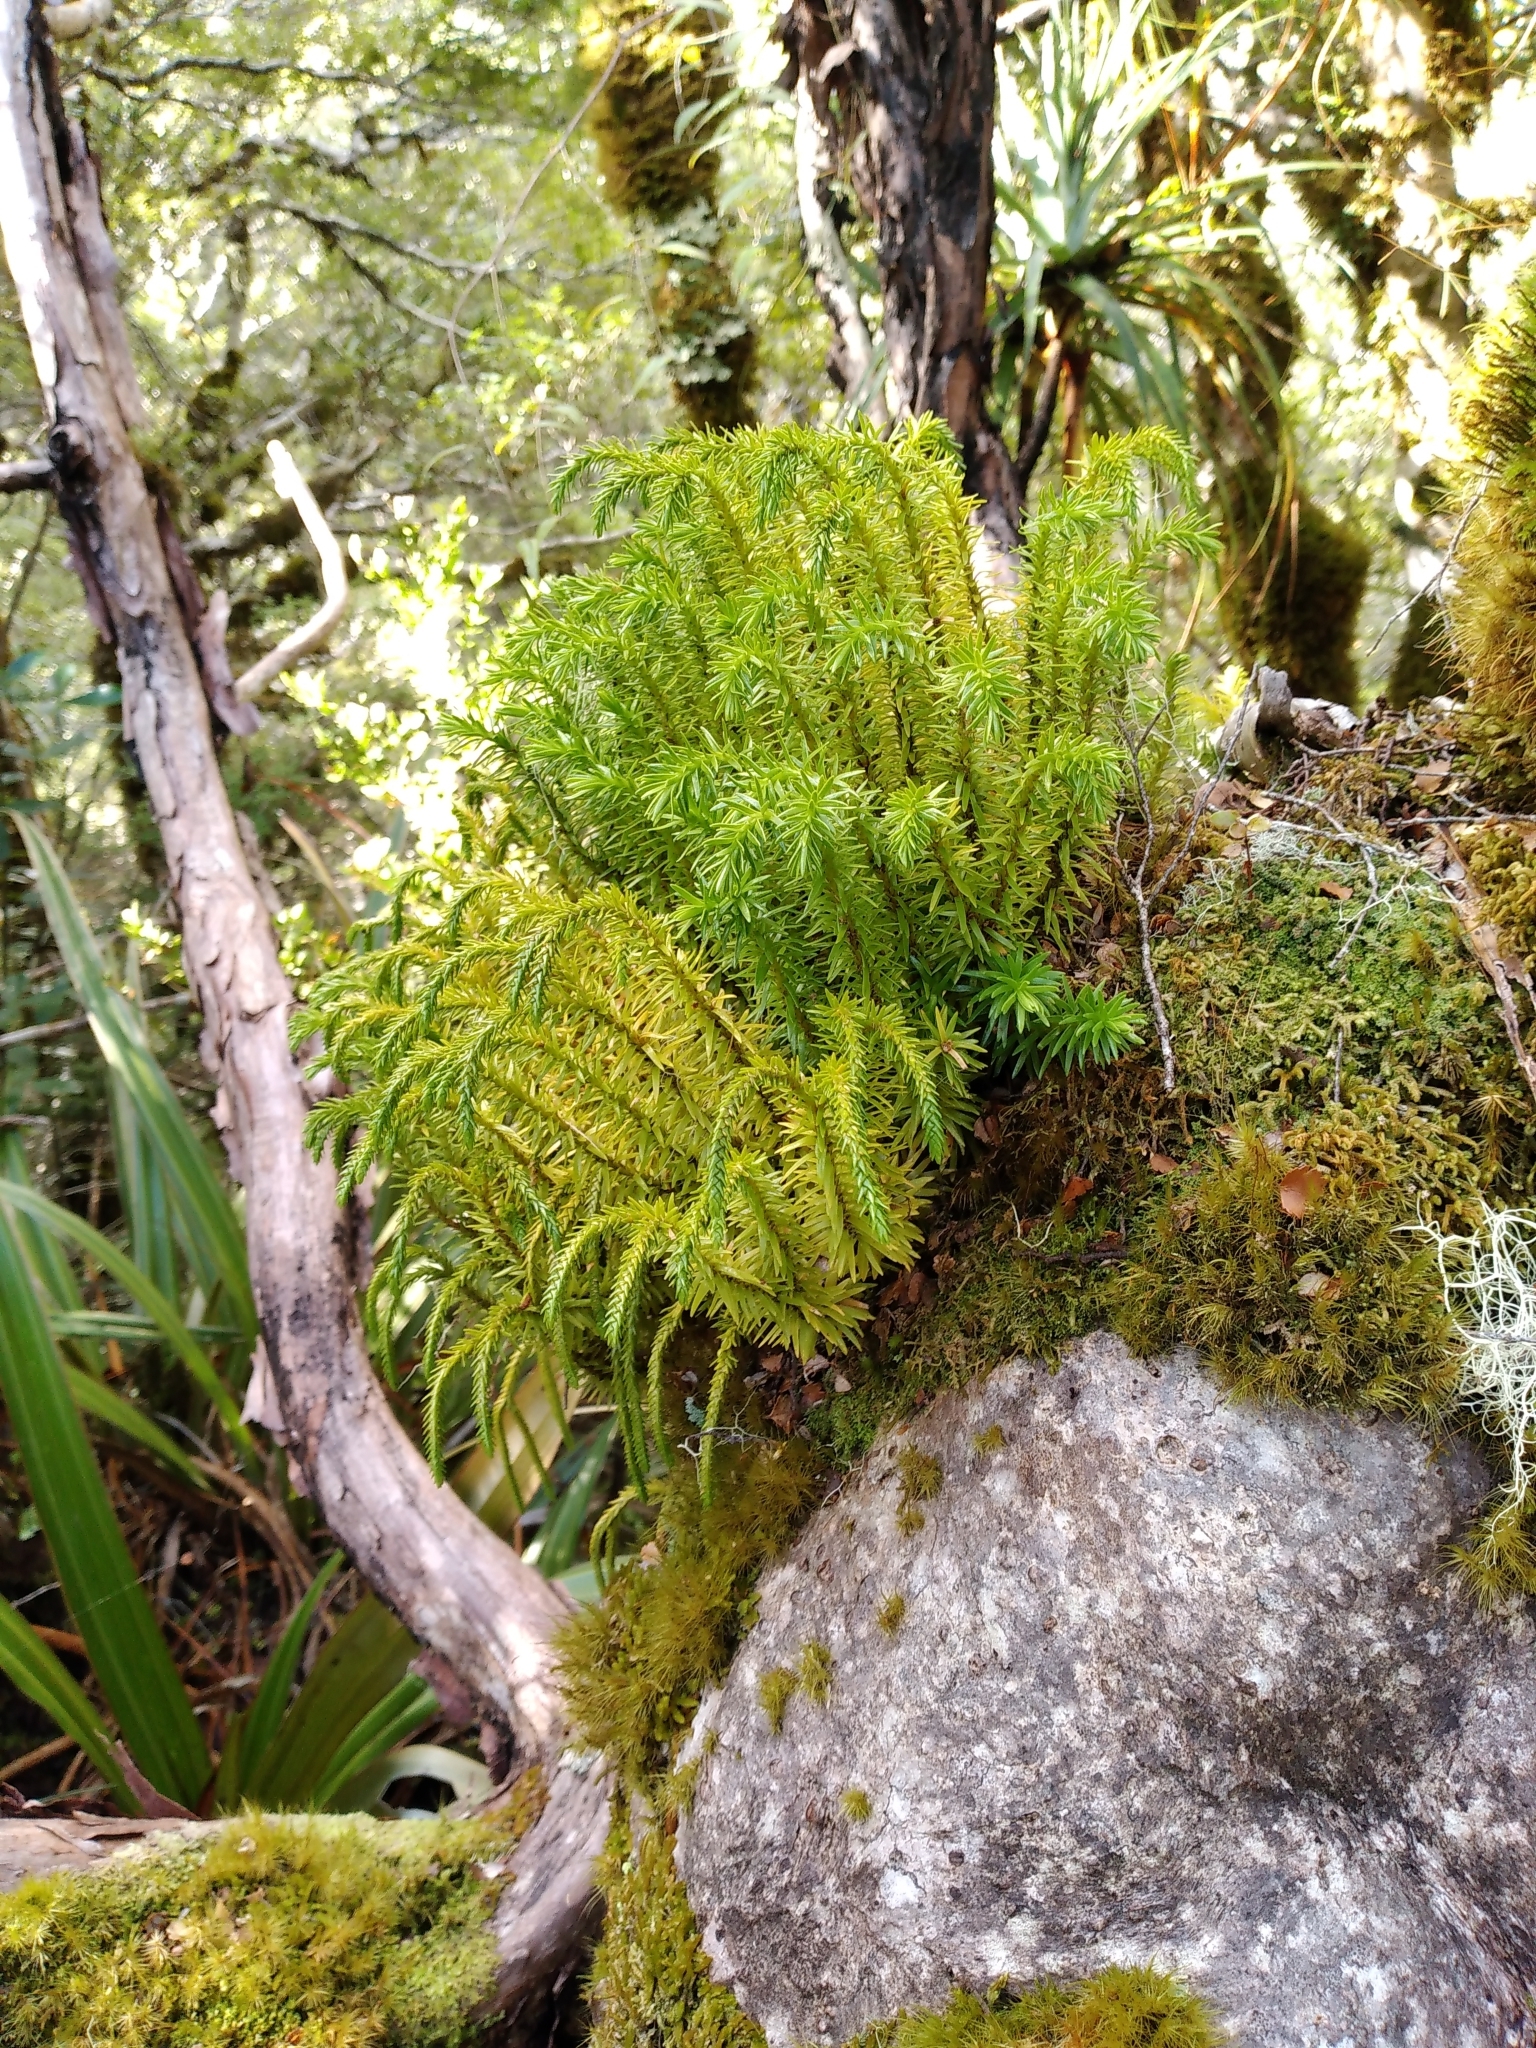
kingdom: Plantae
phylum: Tracheophyta
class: Lycopodiopsida
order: Lycopodiales
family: Lycopodiaceae
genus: Phlegmariurus
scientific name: Phlegmariurus varius
